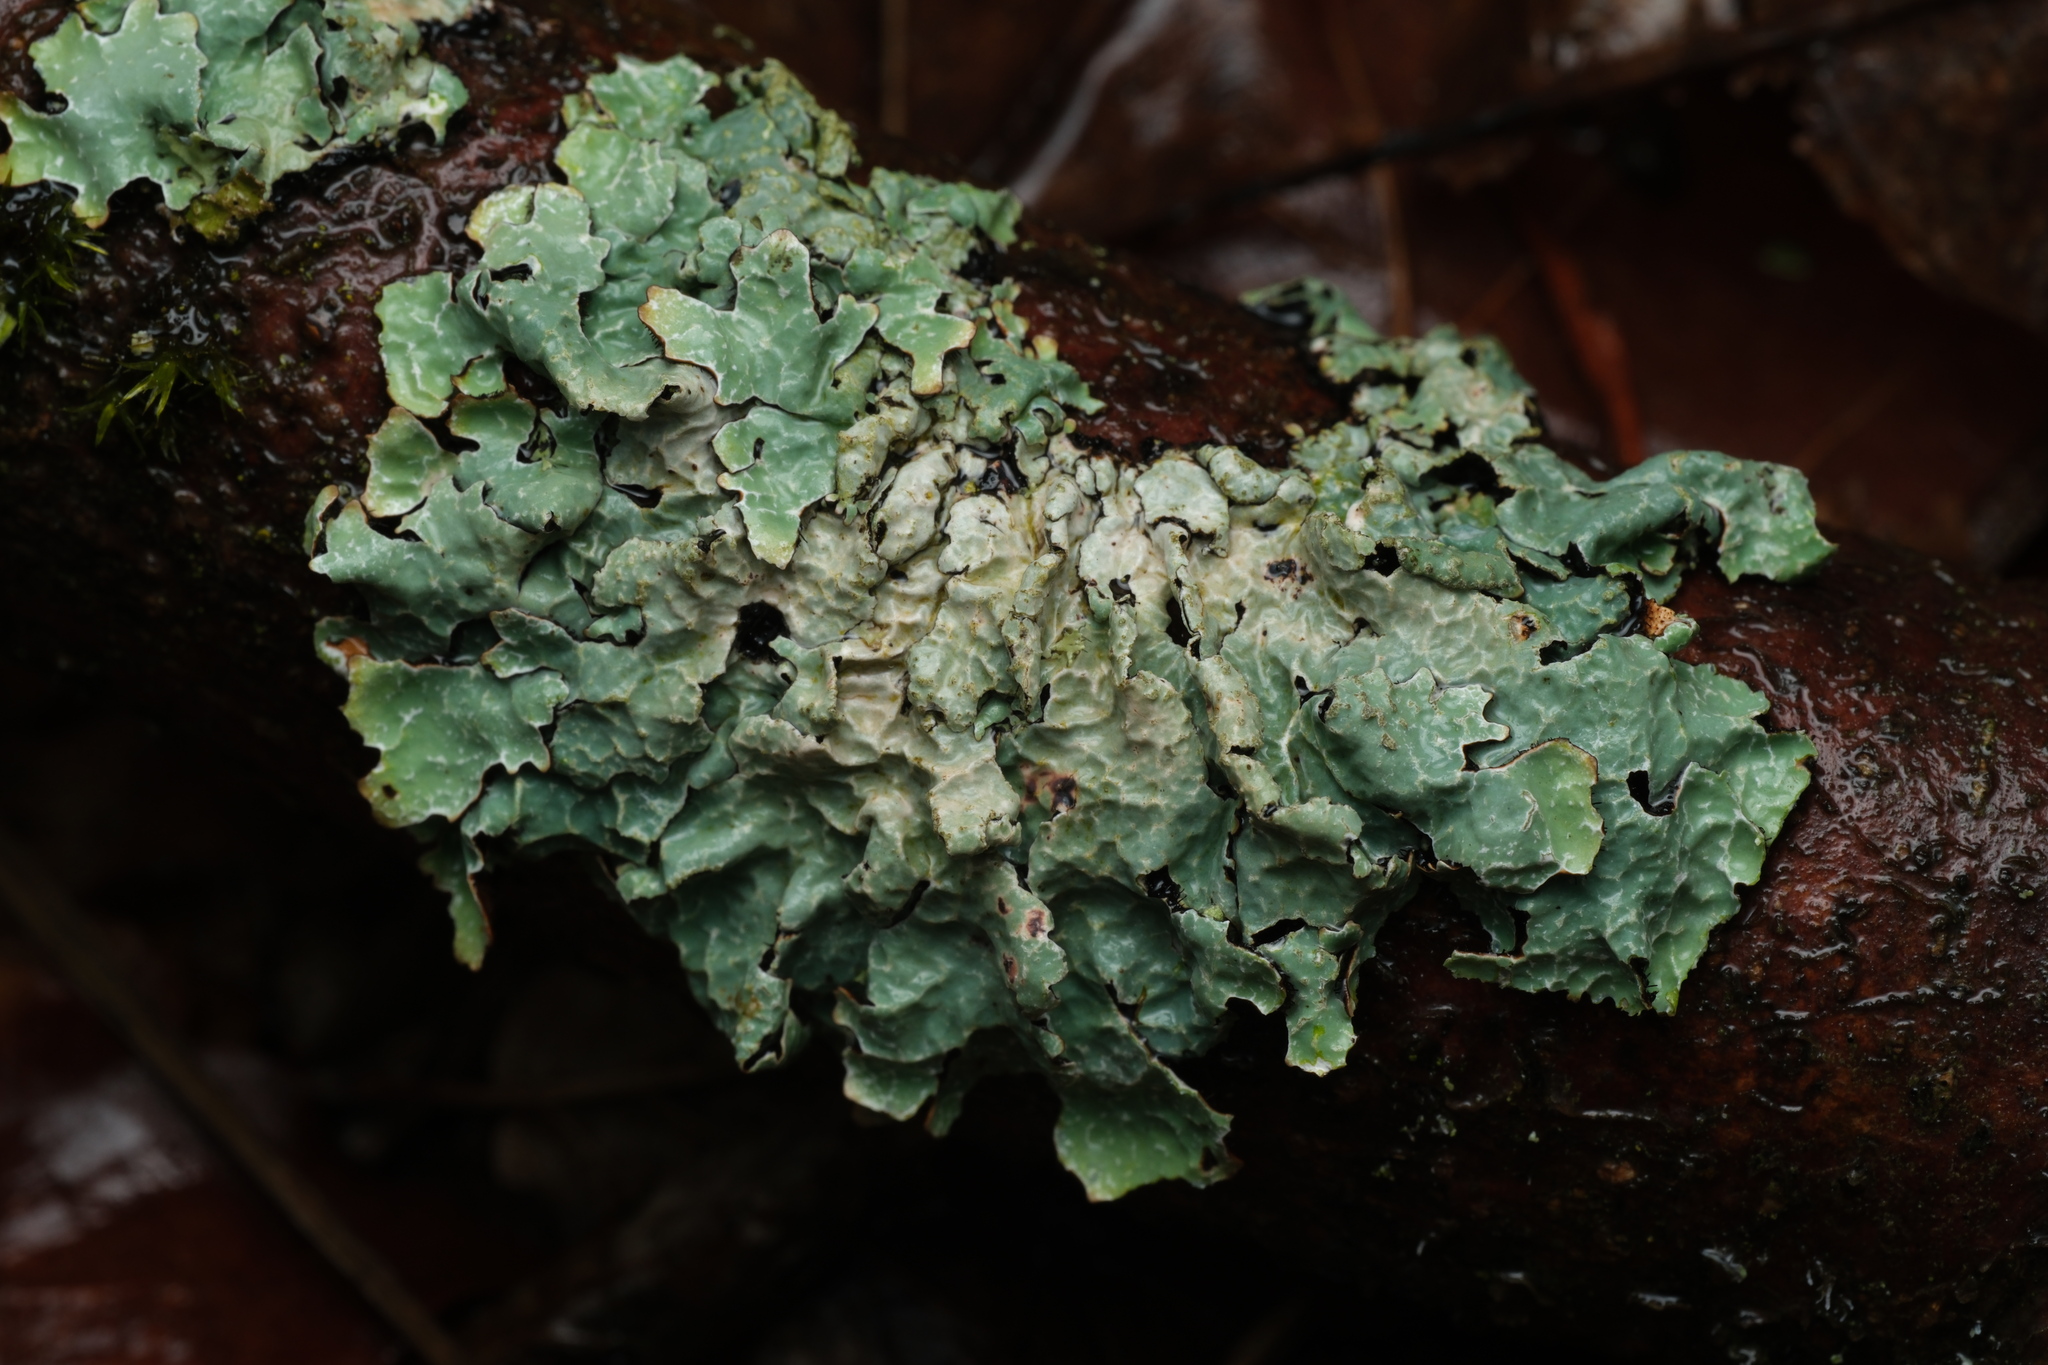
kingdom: Fungi
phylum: Ascomycota
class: Lecanoromycetes
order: Lecanorales
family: Parmeliaceae
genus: Parmelia
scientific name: Parmelia sulcata
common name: Netted shield lichen
